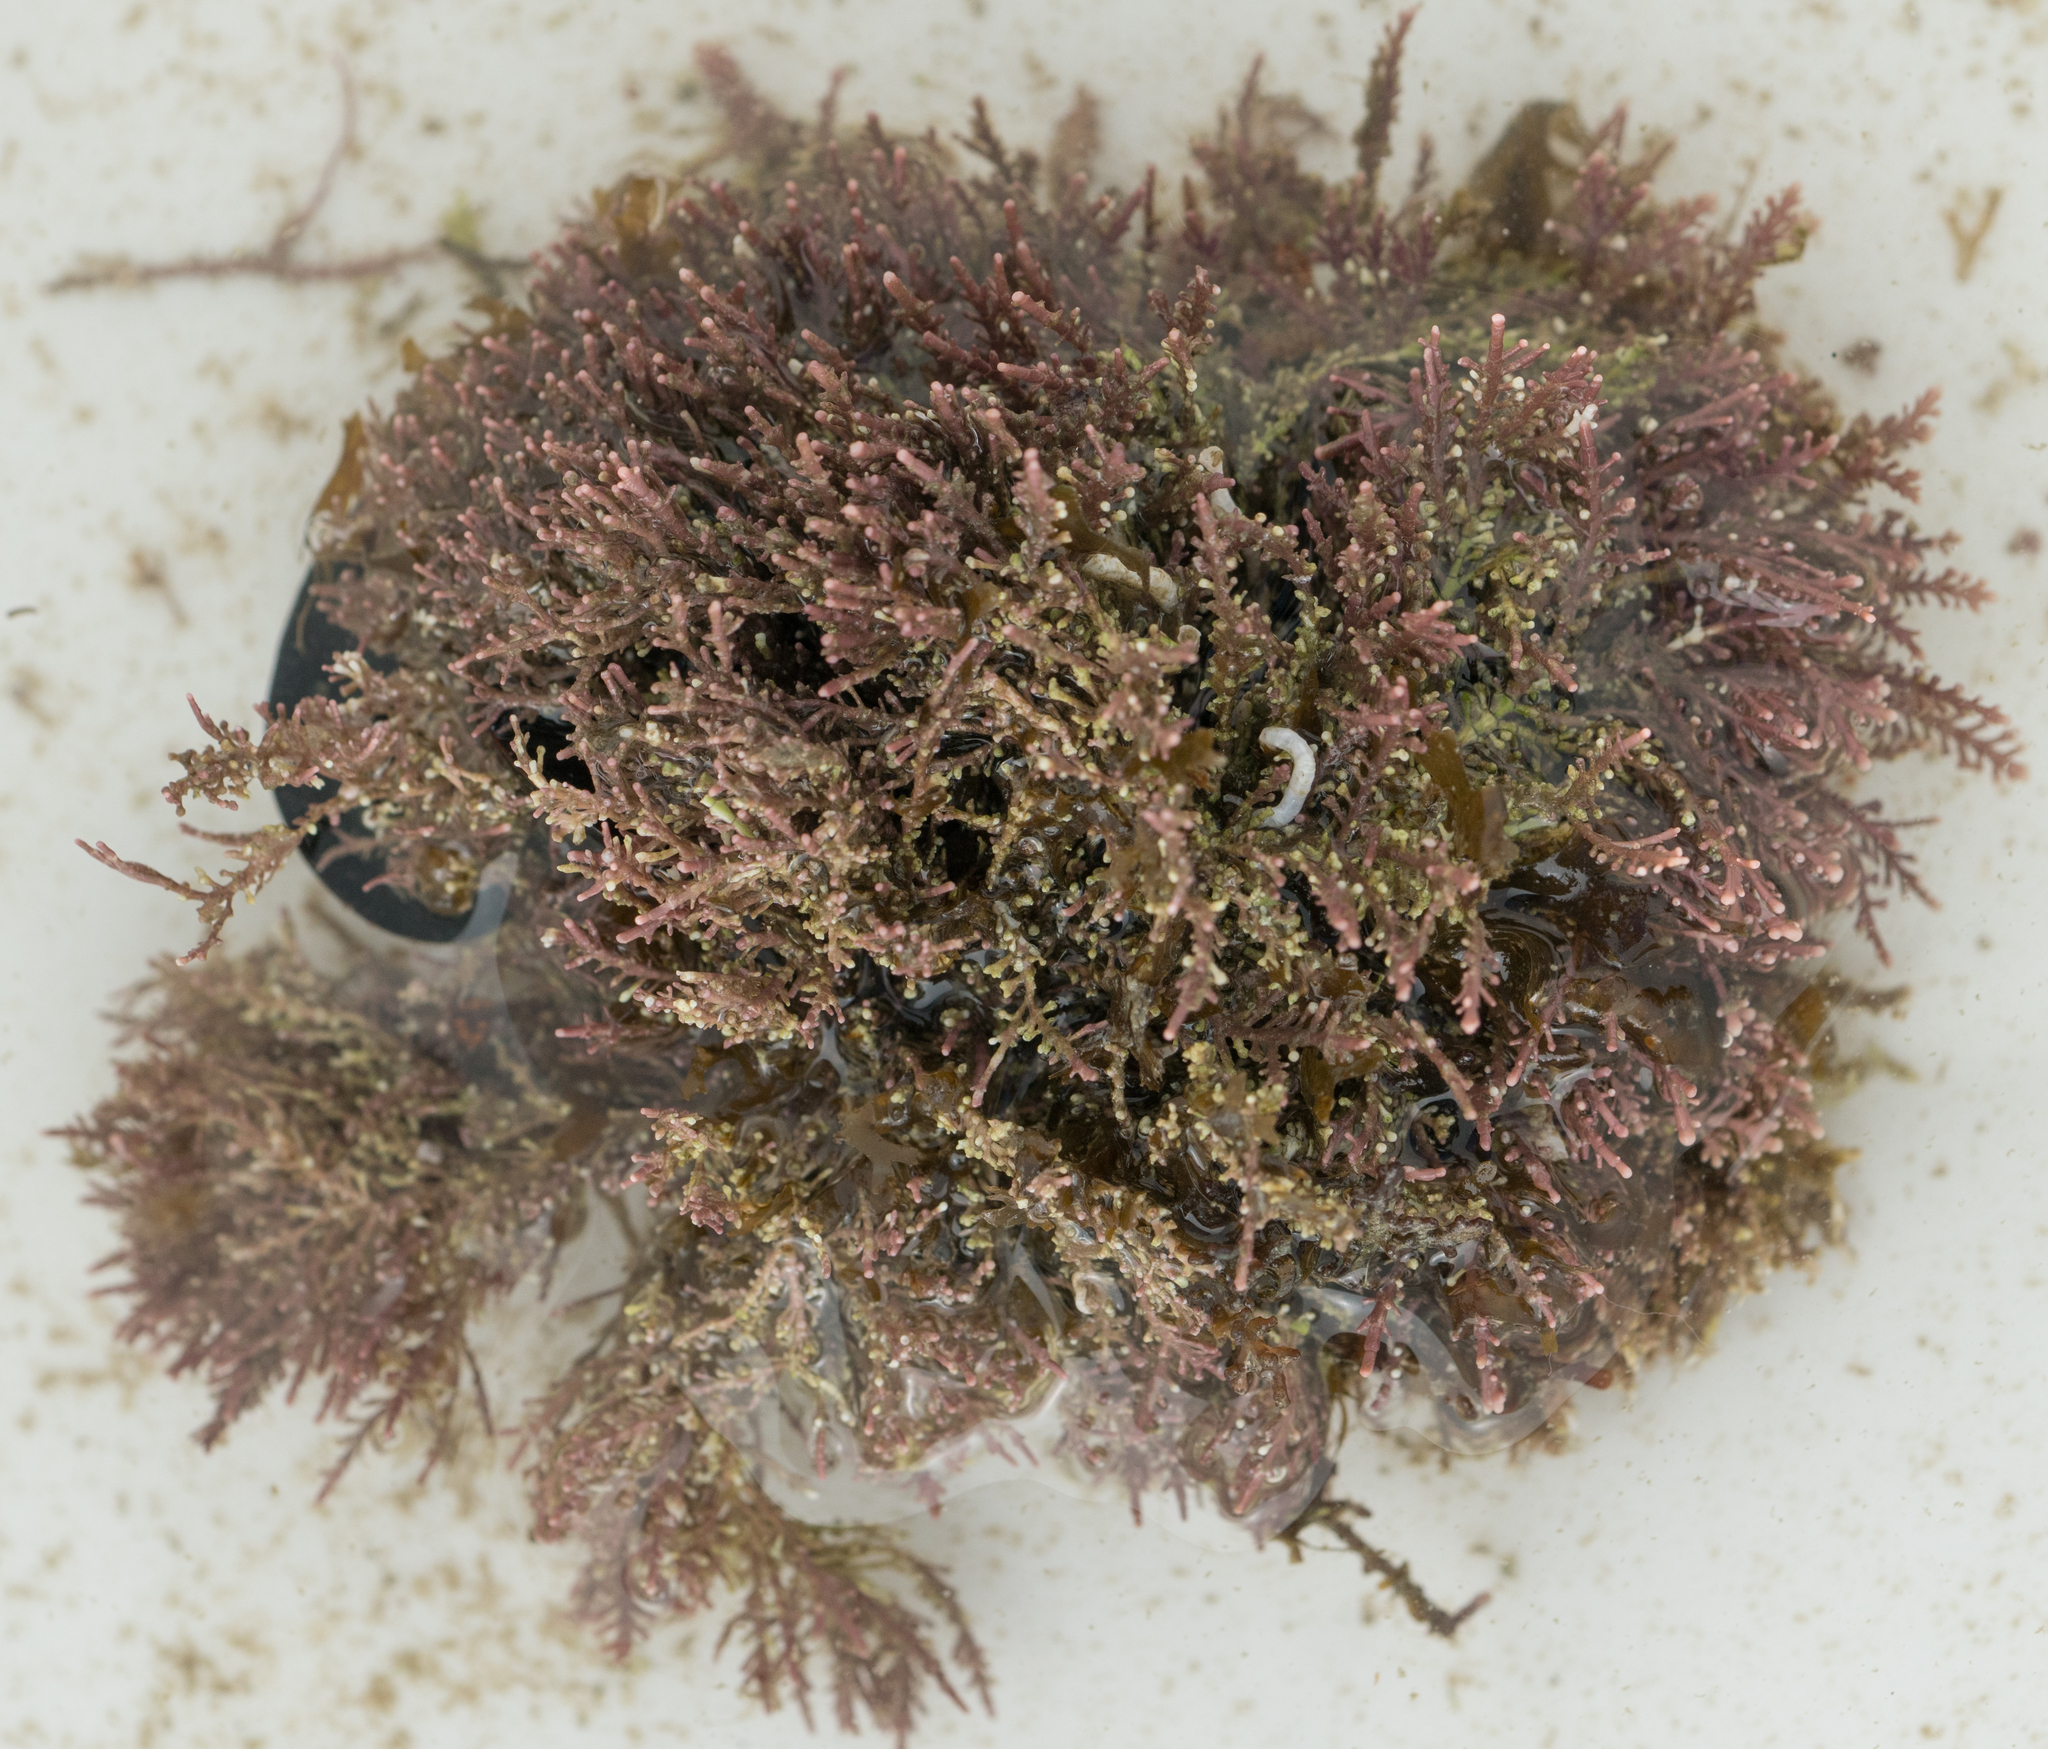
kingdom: Plantae
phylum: Rhodophyta
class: Florideophyceae
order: Corallinales
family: Corallinaceae
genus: Corallina
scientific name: Corallina officinalis
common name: Coral weed
